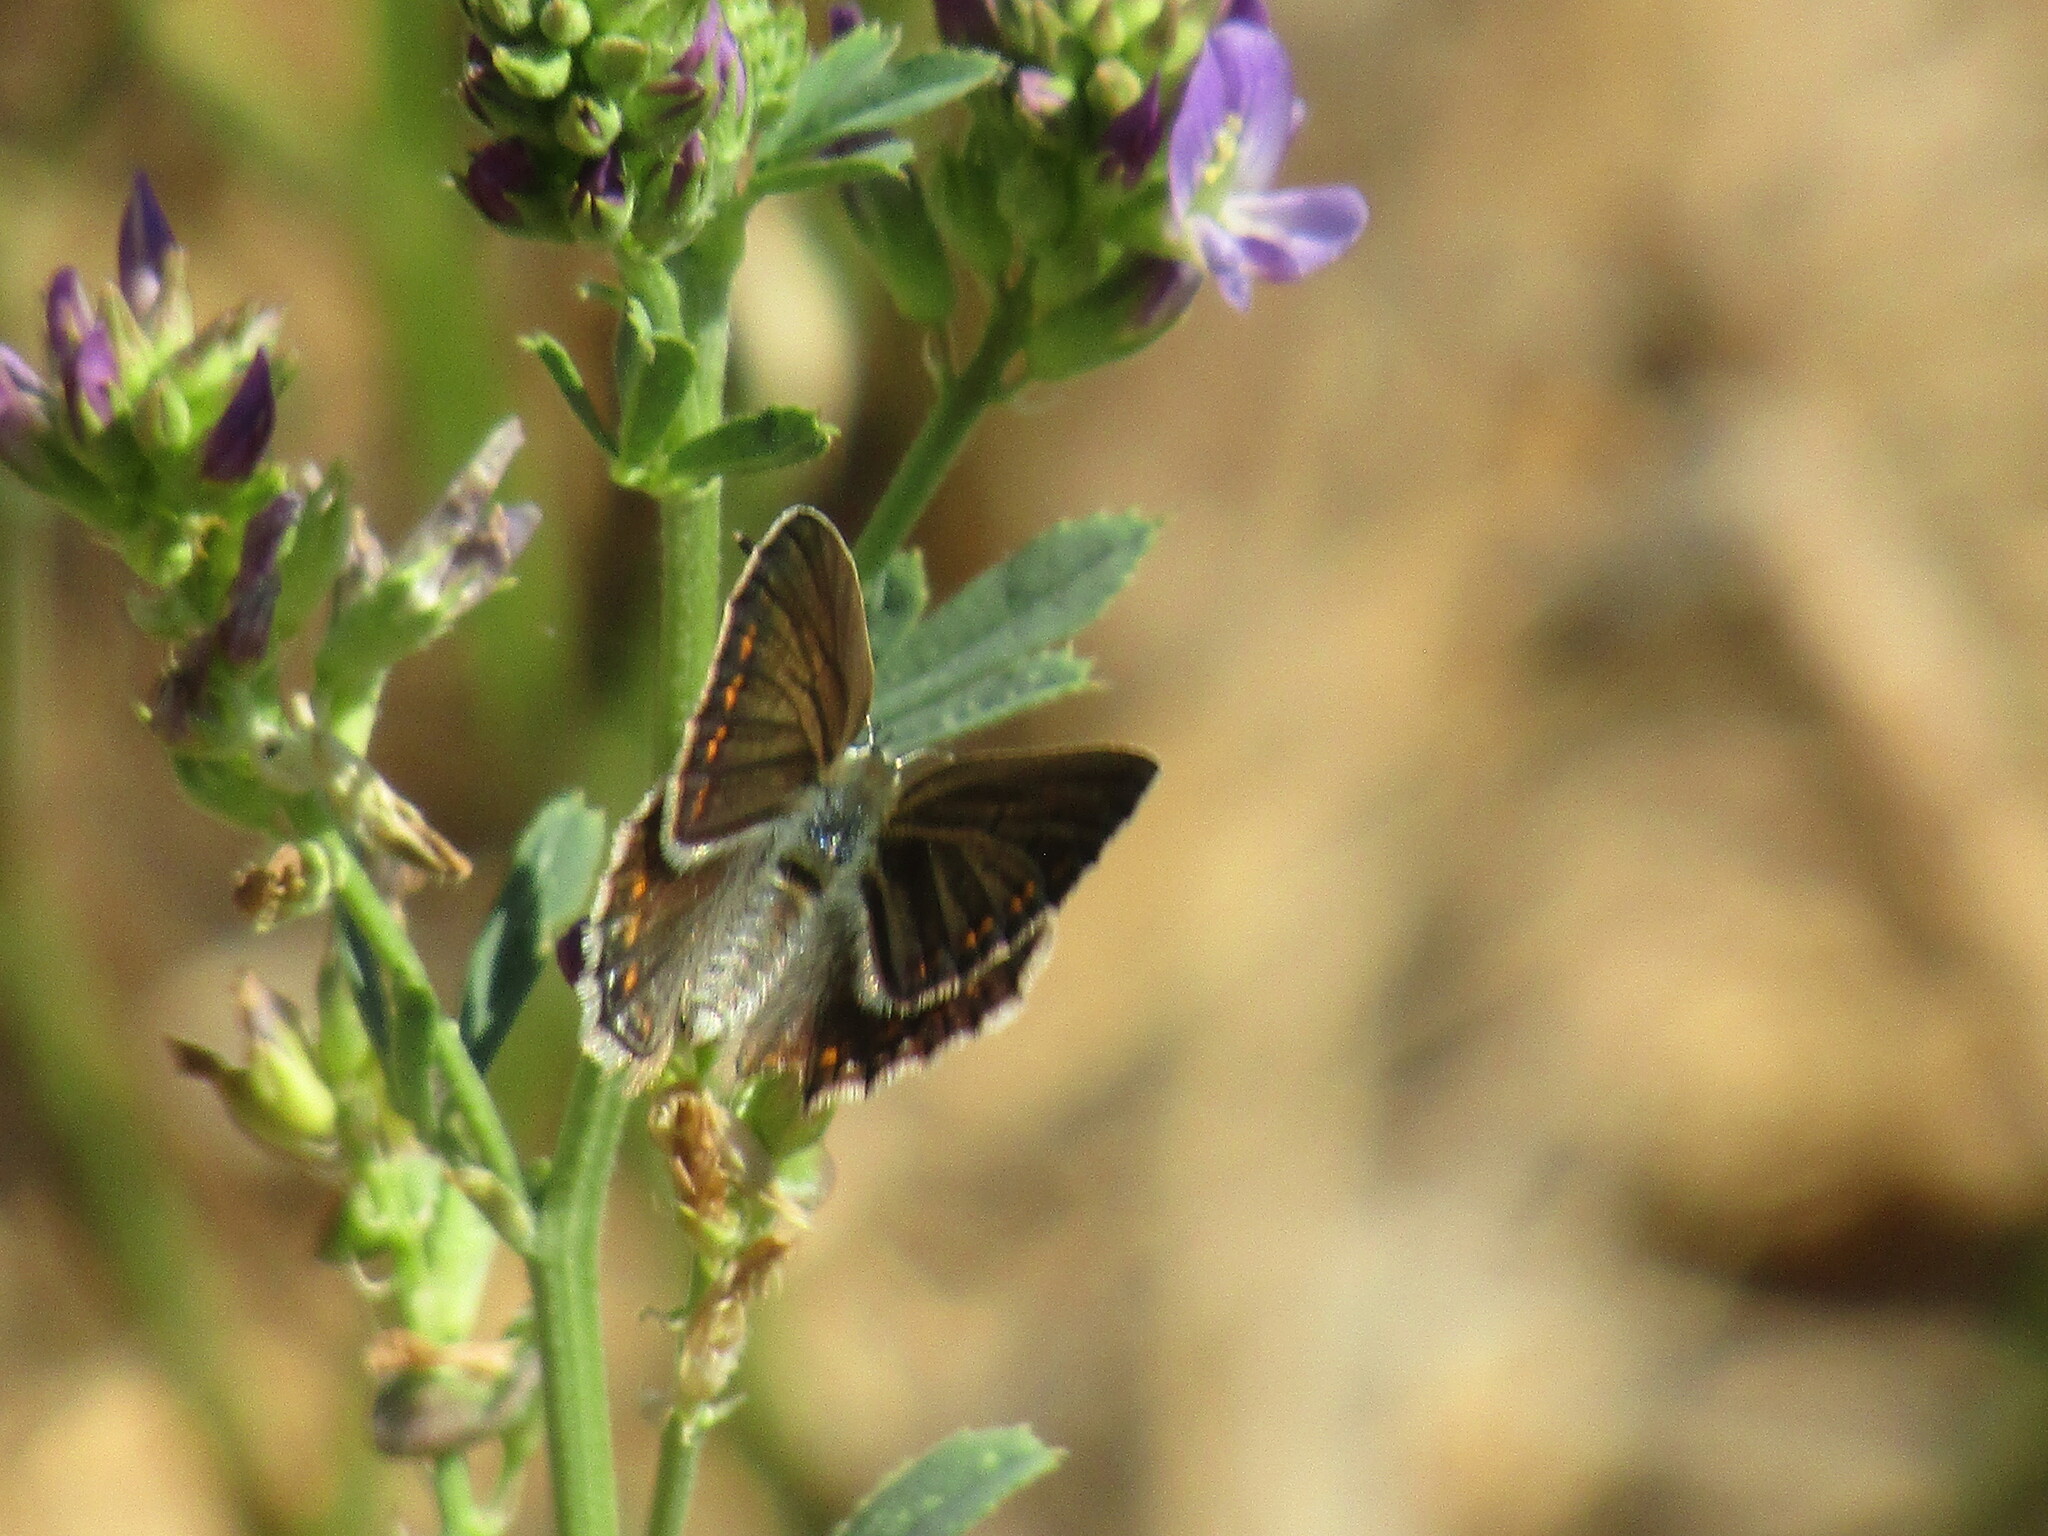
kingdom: Animalia
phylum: Arthropoda
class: Insecta
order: Lepidoptera
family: Lycaenidae
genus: Polyommatus
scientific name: Polyommatus
